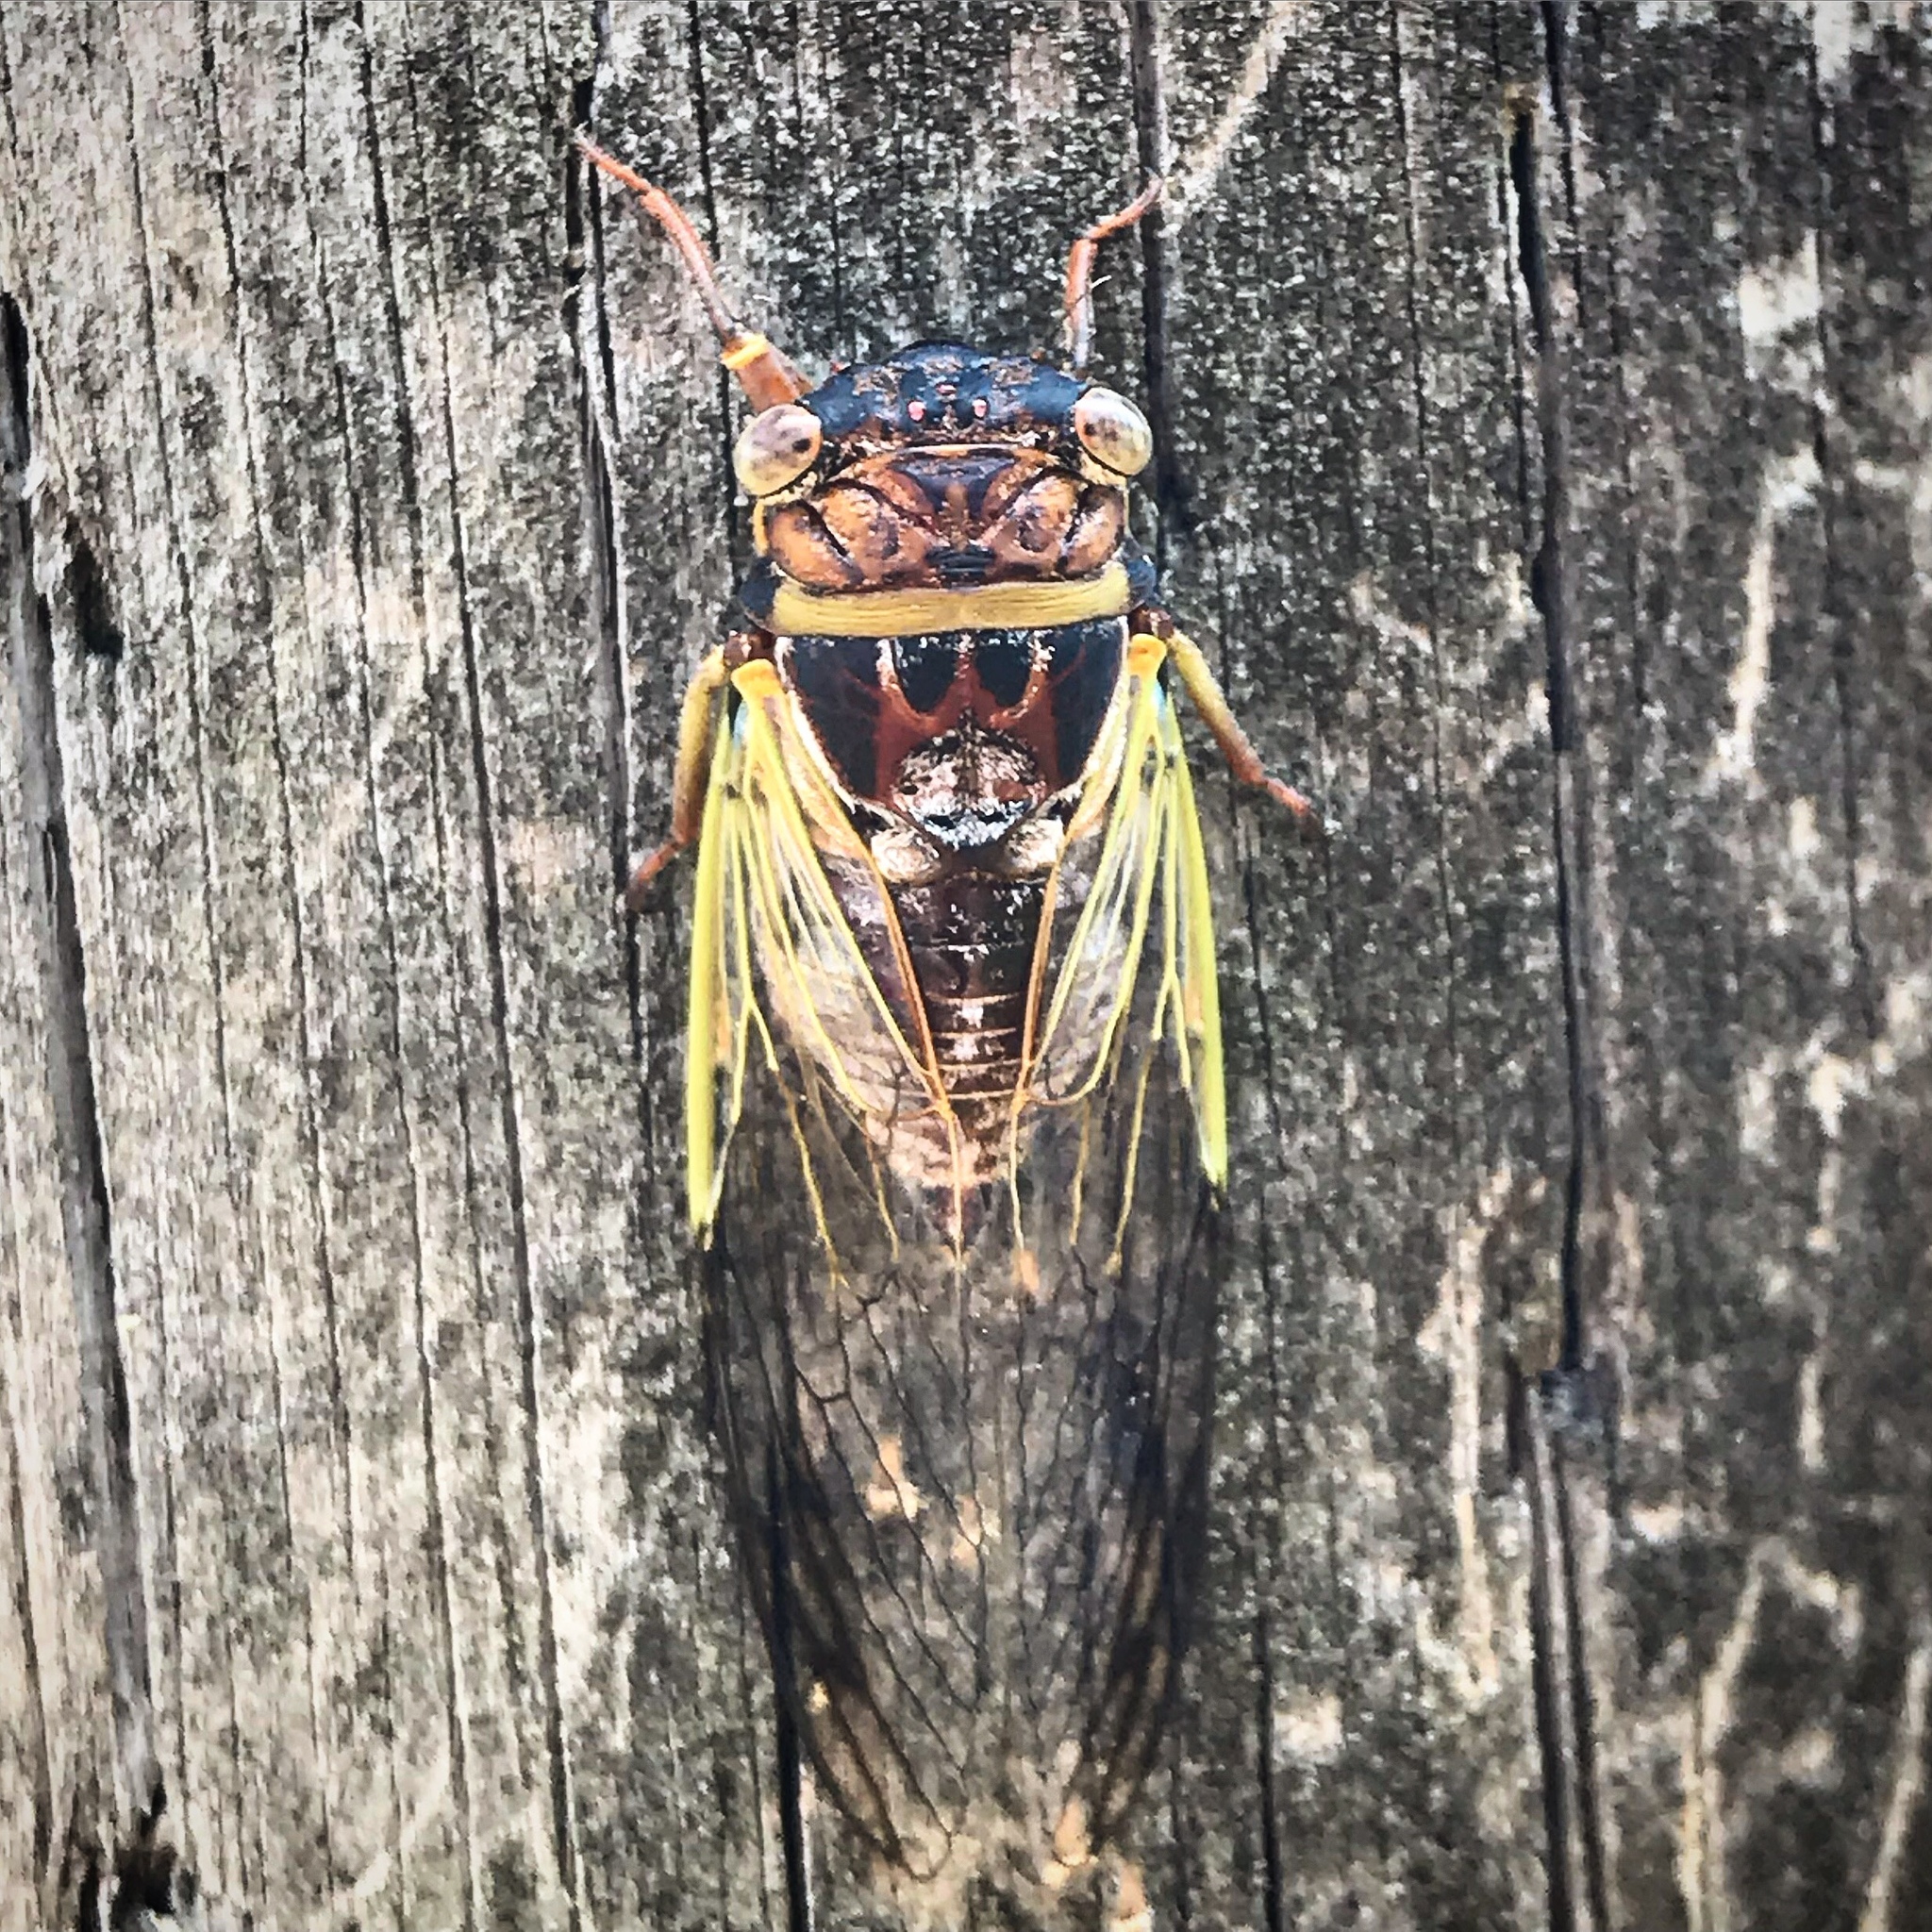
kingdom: Animalia
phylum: Arthropoda
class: Insecta
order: Hemiptera
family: Cicadidae
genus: Diceroprocta
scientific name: Diceroprocta olympusa
